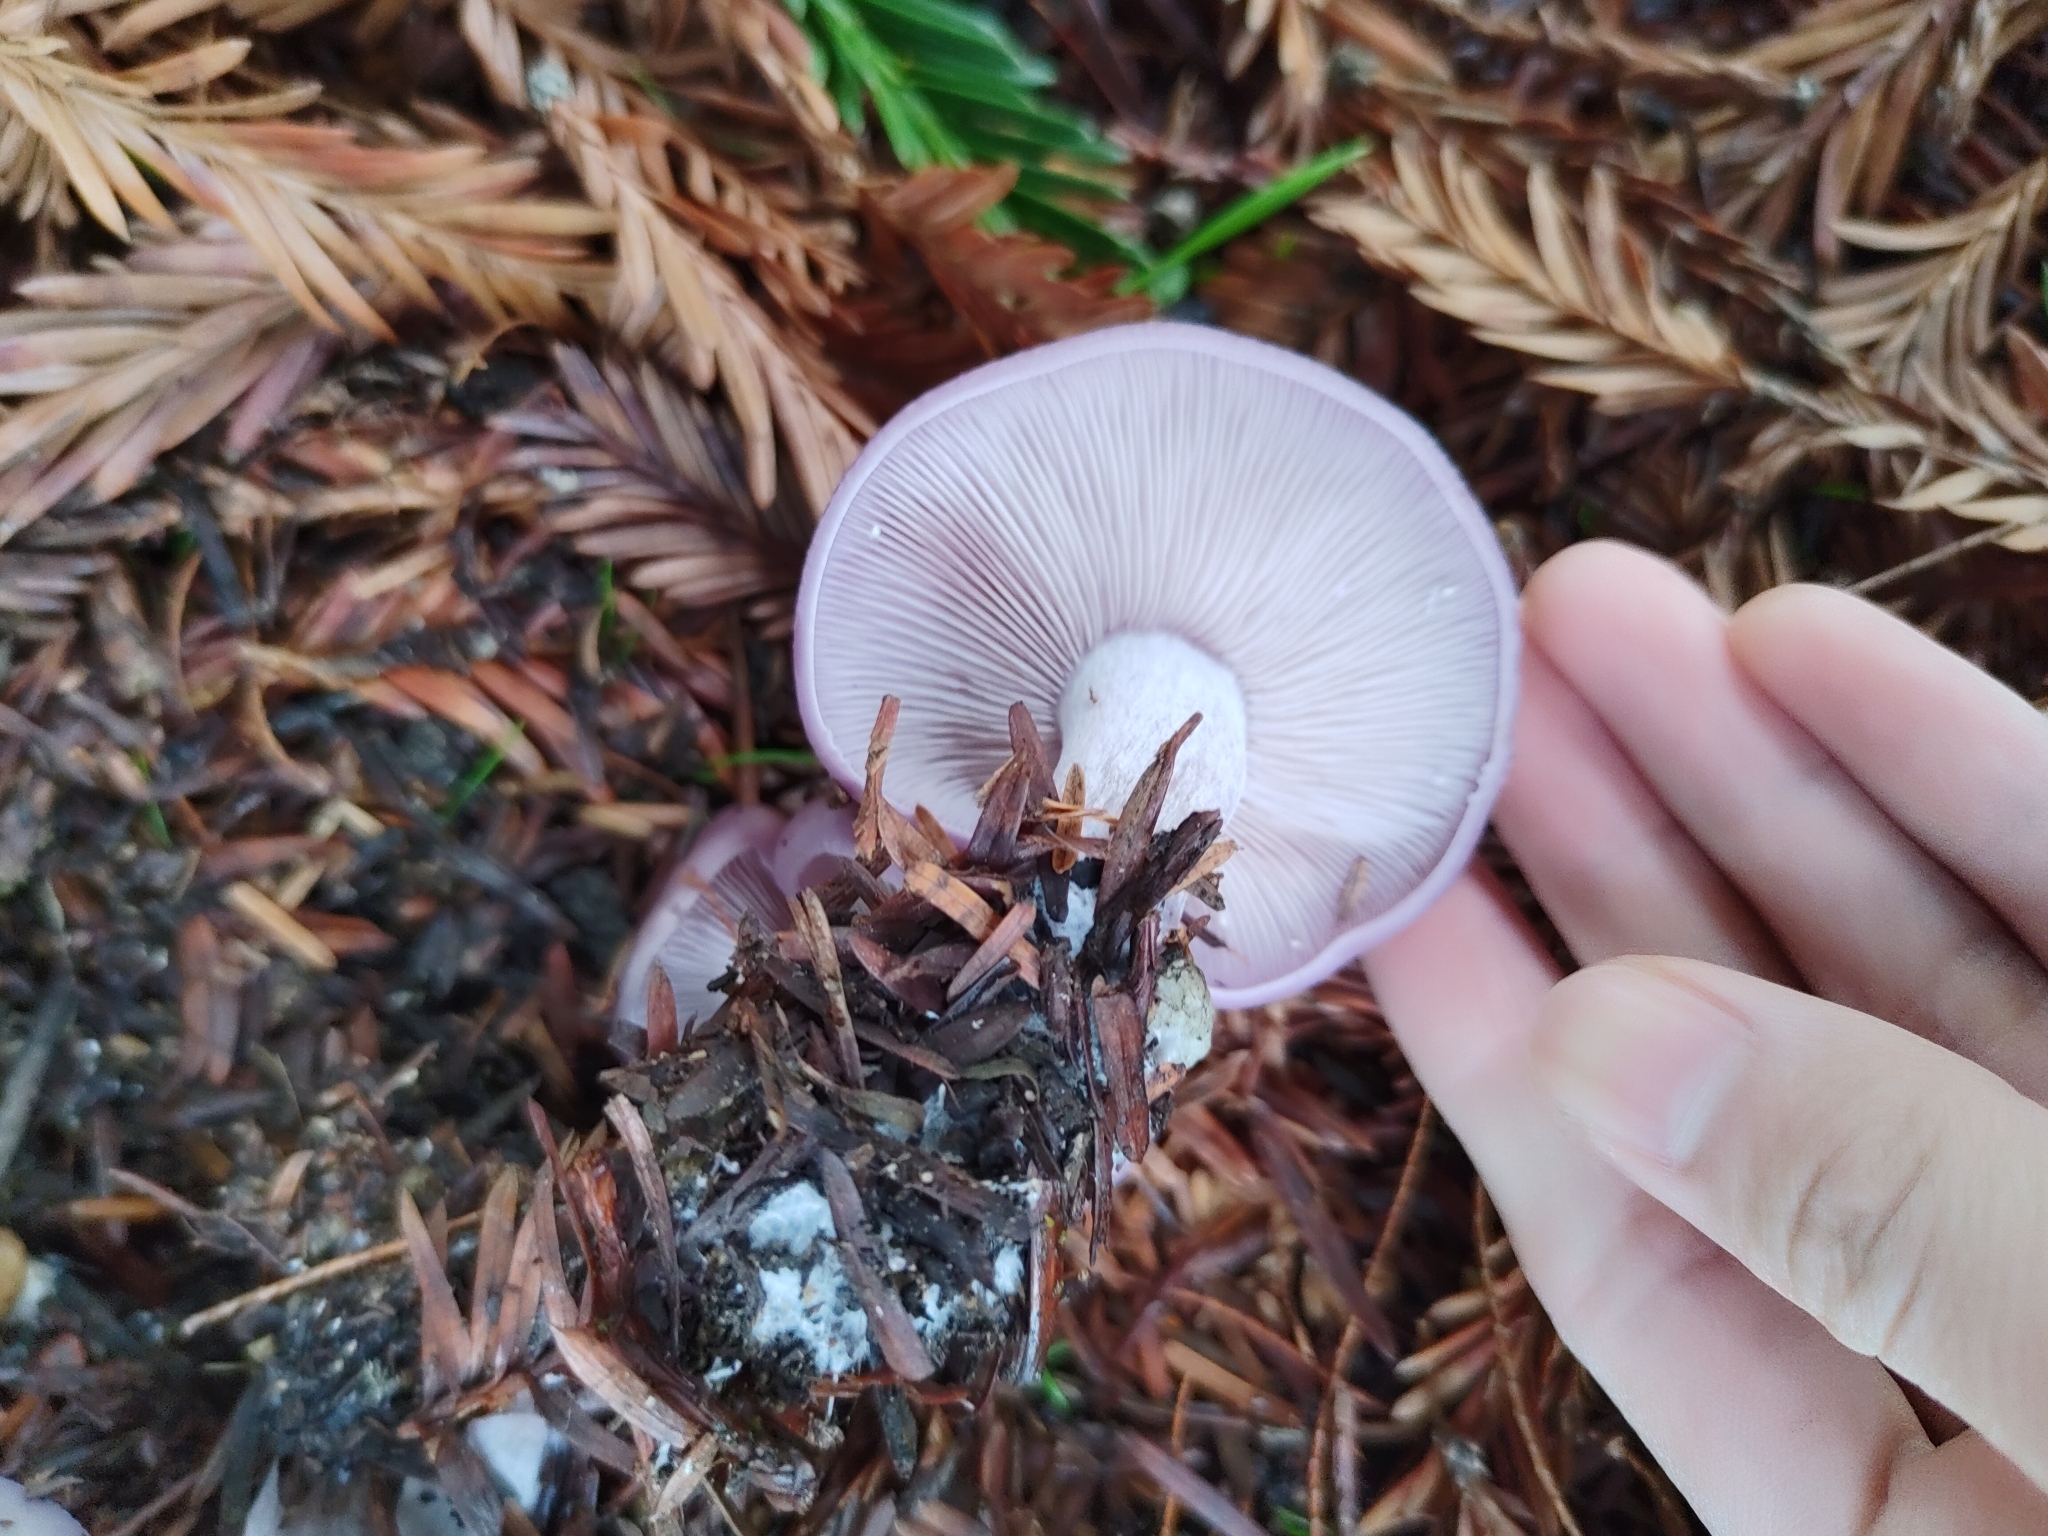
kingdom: Fungi
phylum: Basidiomycota
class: Agaricomycetes
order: Agaricales
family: Tricholomataceae
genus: Collybia
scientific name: Collybia
